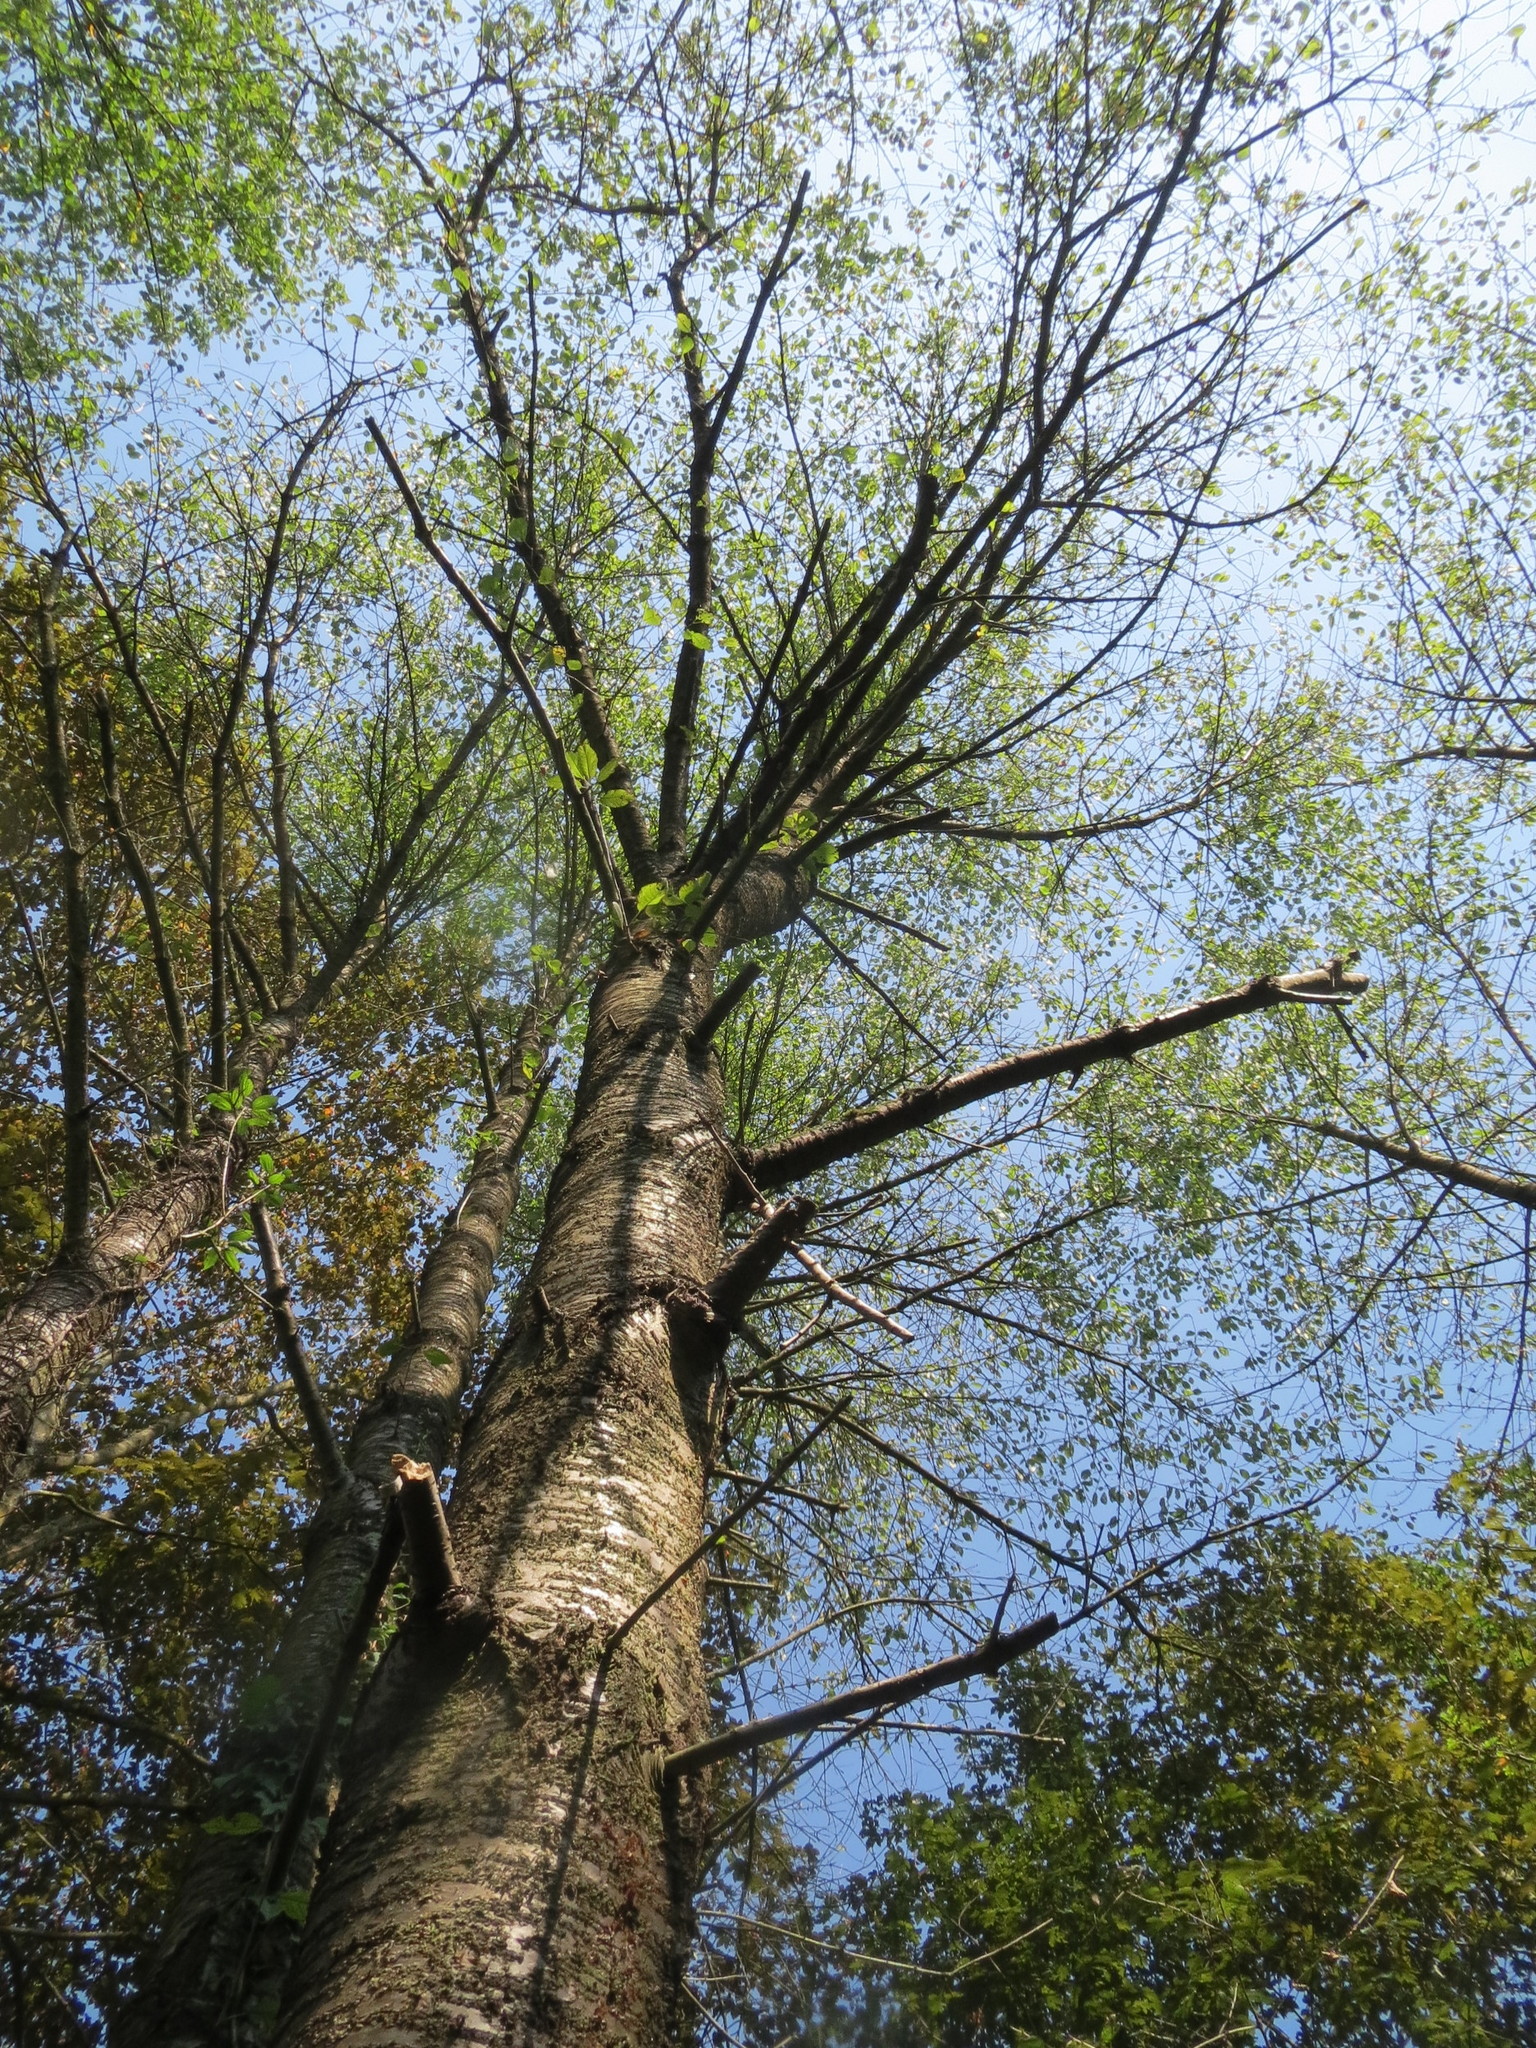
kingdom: Plantae
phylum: Tracheophyta
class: Magnoliopsida
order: Rosales
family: Rosaceae
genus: Prunus
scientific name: Prunus avium
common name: Sweet cherry
